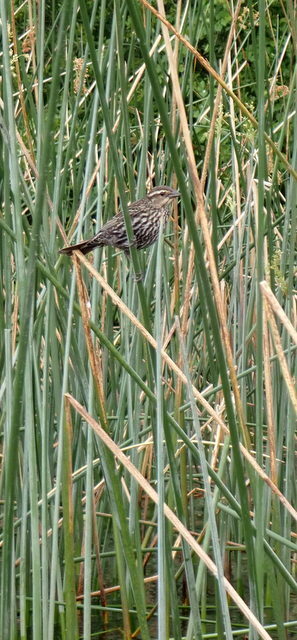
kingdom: Animalia
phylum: Chordata
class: Aves
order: Passeriformes
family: Icteridae
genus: Agelaius
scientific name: Agelaius phoeniceus
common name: Red-winged blackbird
